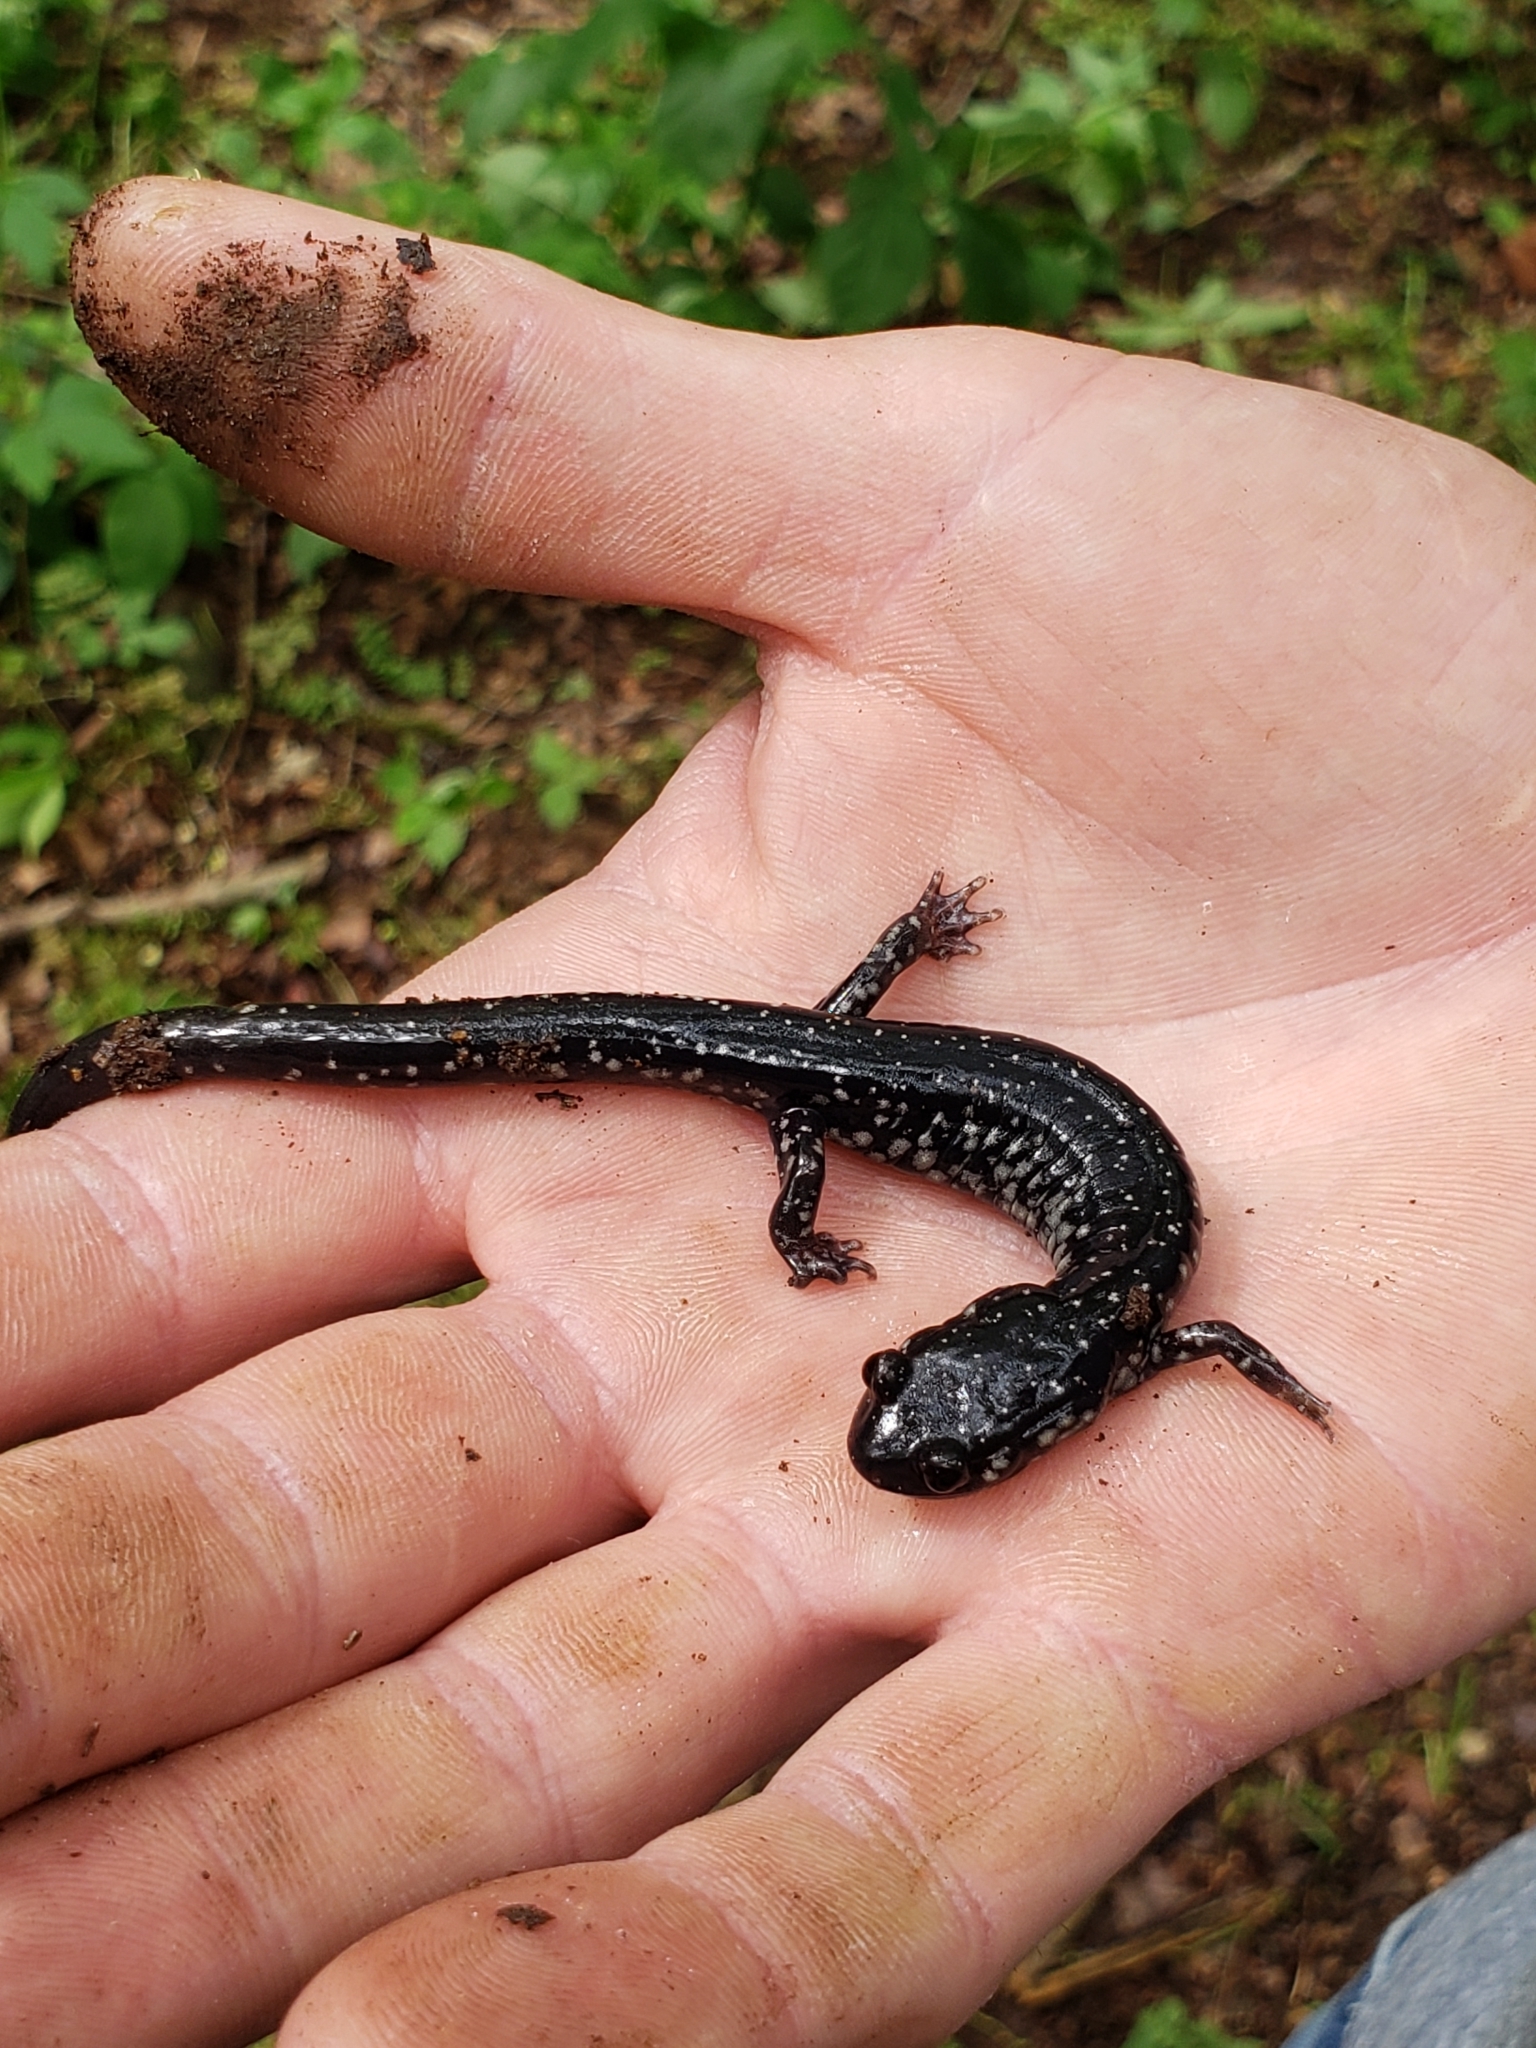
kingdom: Animalia
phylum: Chordata
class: Amphibia
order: Caudata
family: Plethodontidae
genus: Plethodon
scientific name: Plethodon albagula
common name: Western slimy salamander
